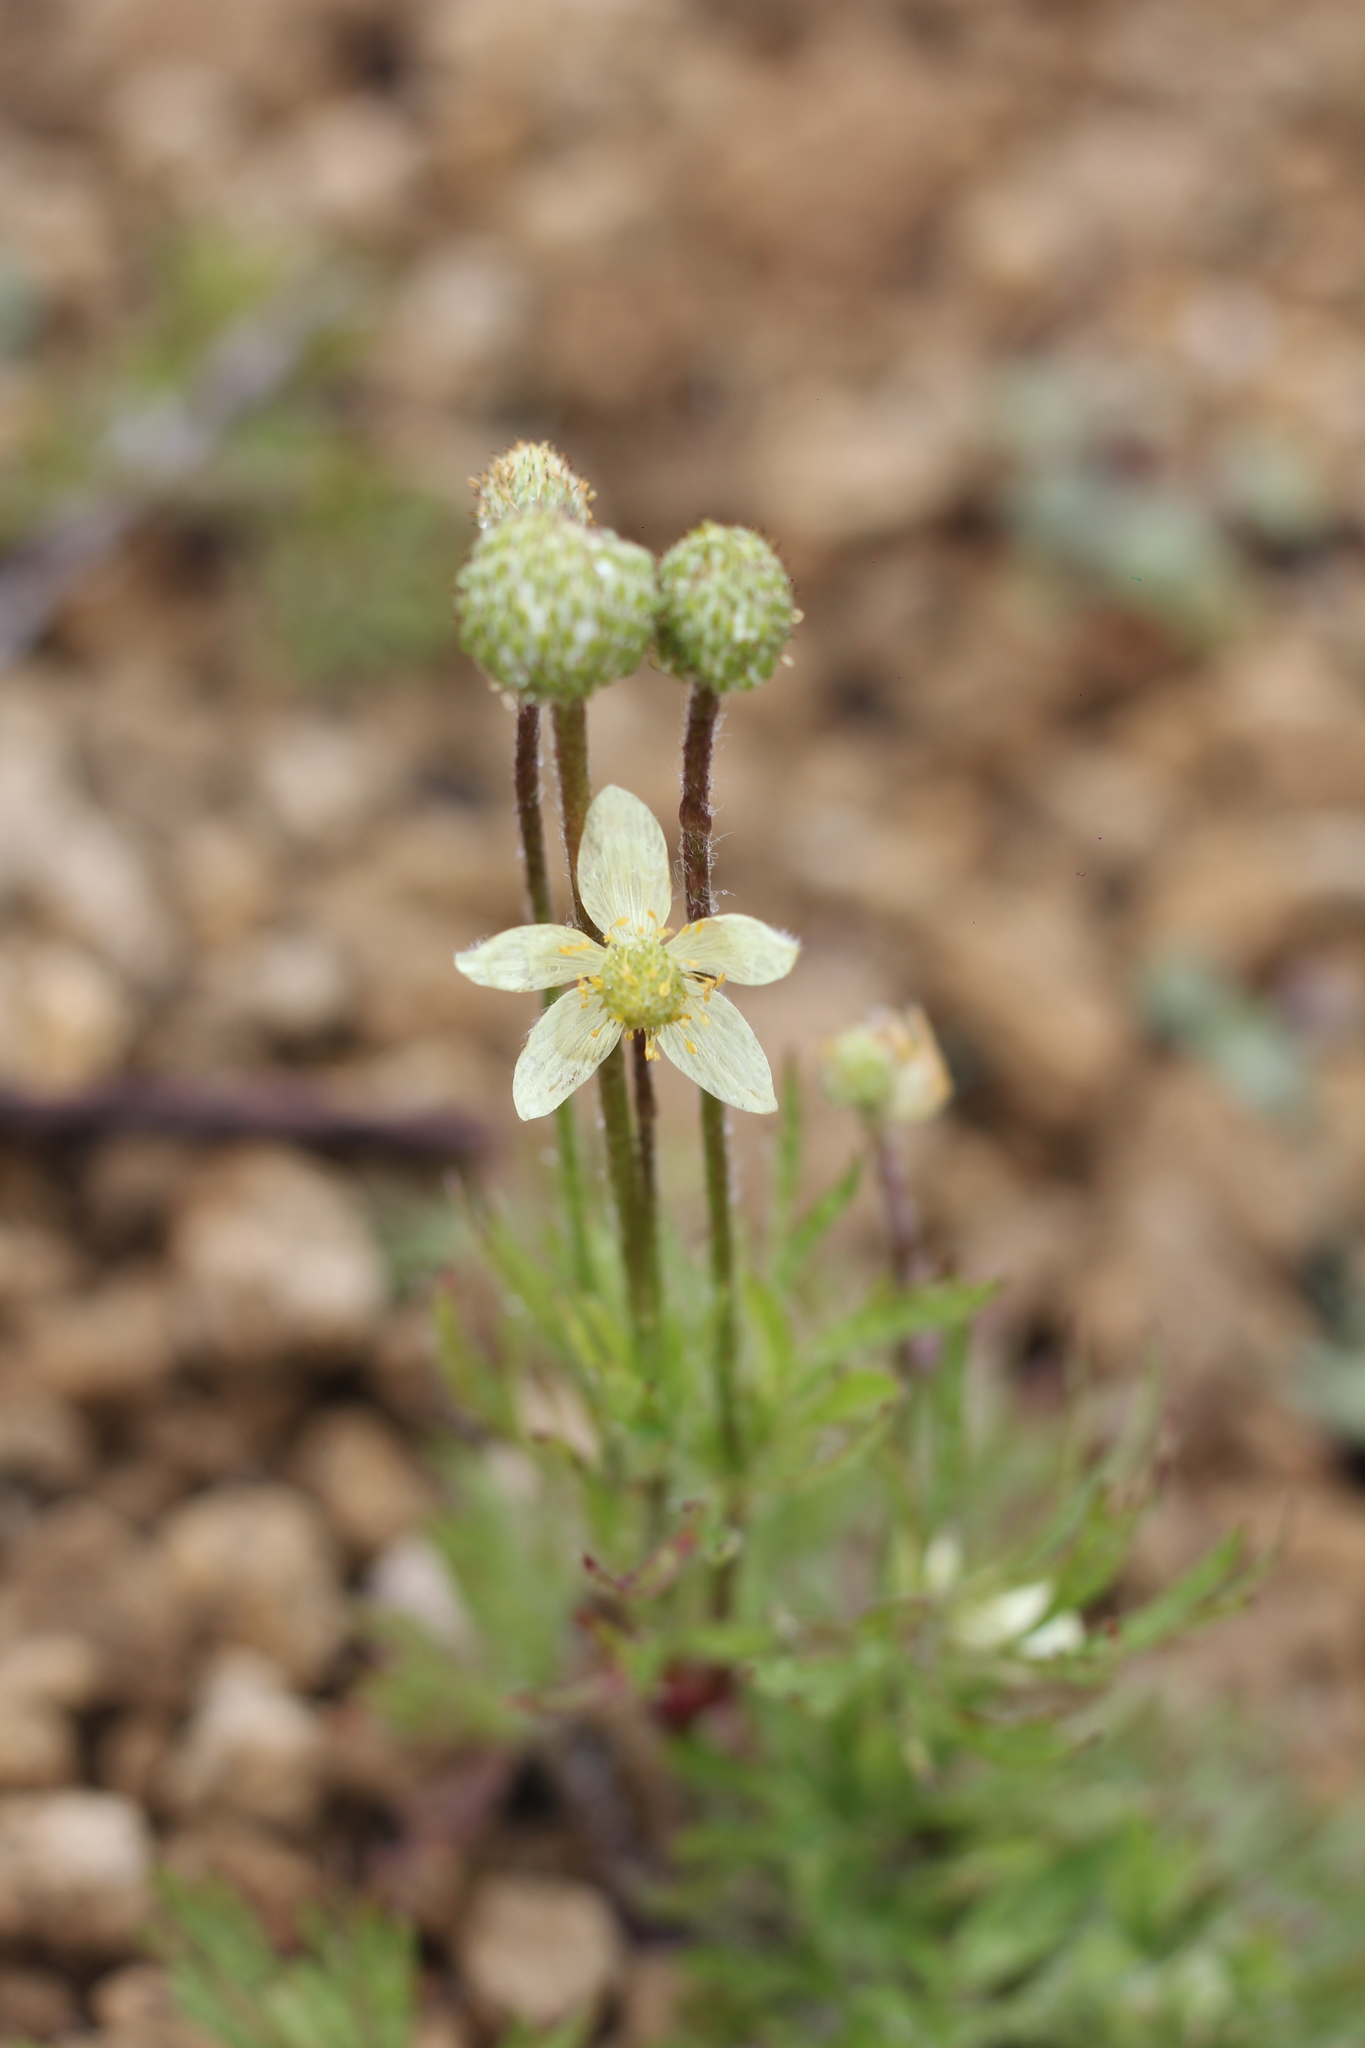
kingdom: Plantae
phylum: Tracheophyta
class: Magnoliopsida
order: Ranunculales
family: Ranunculaceae
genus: Anemone
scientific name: Anemone multifida
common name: Bird's-foot anemone
